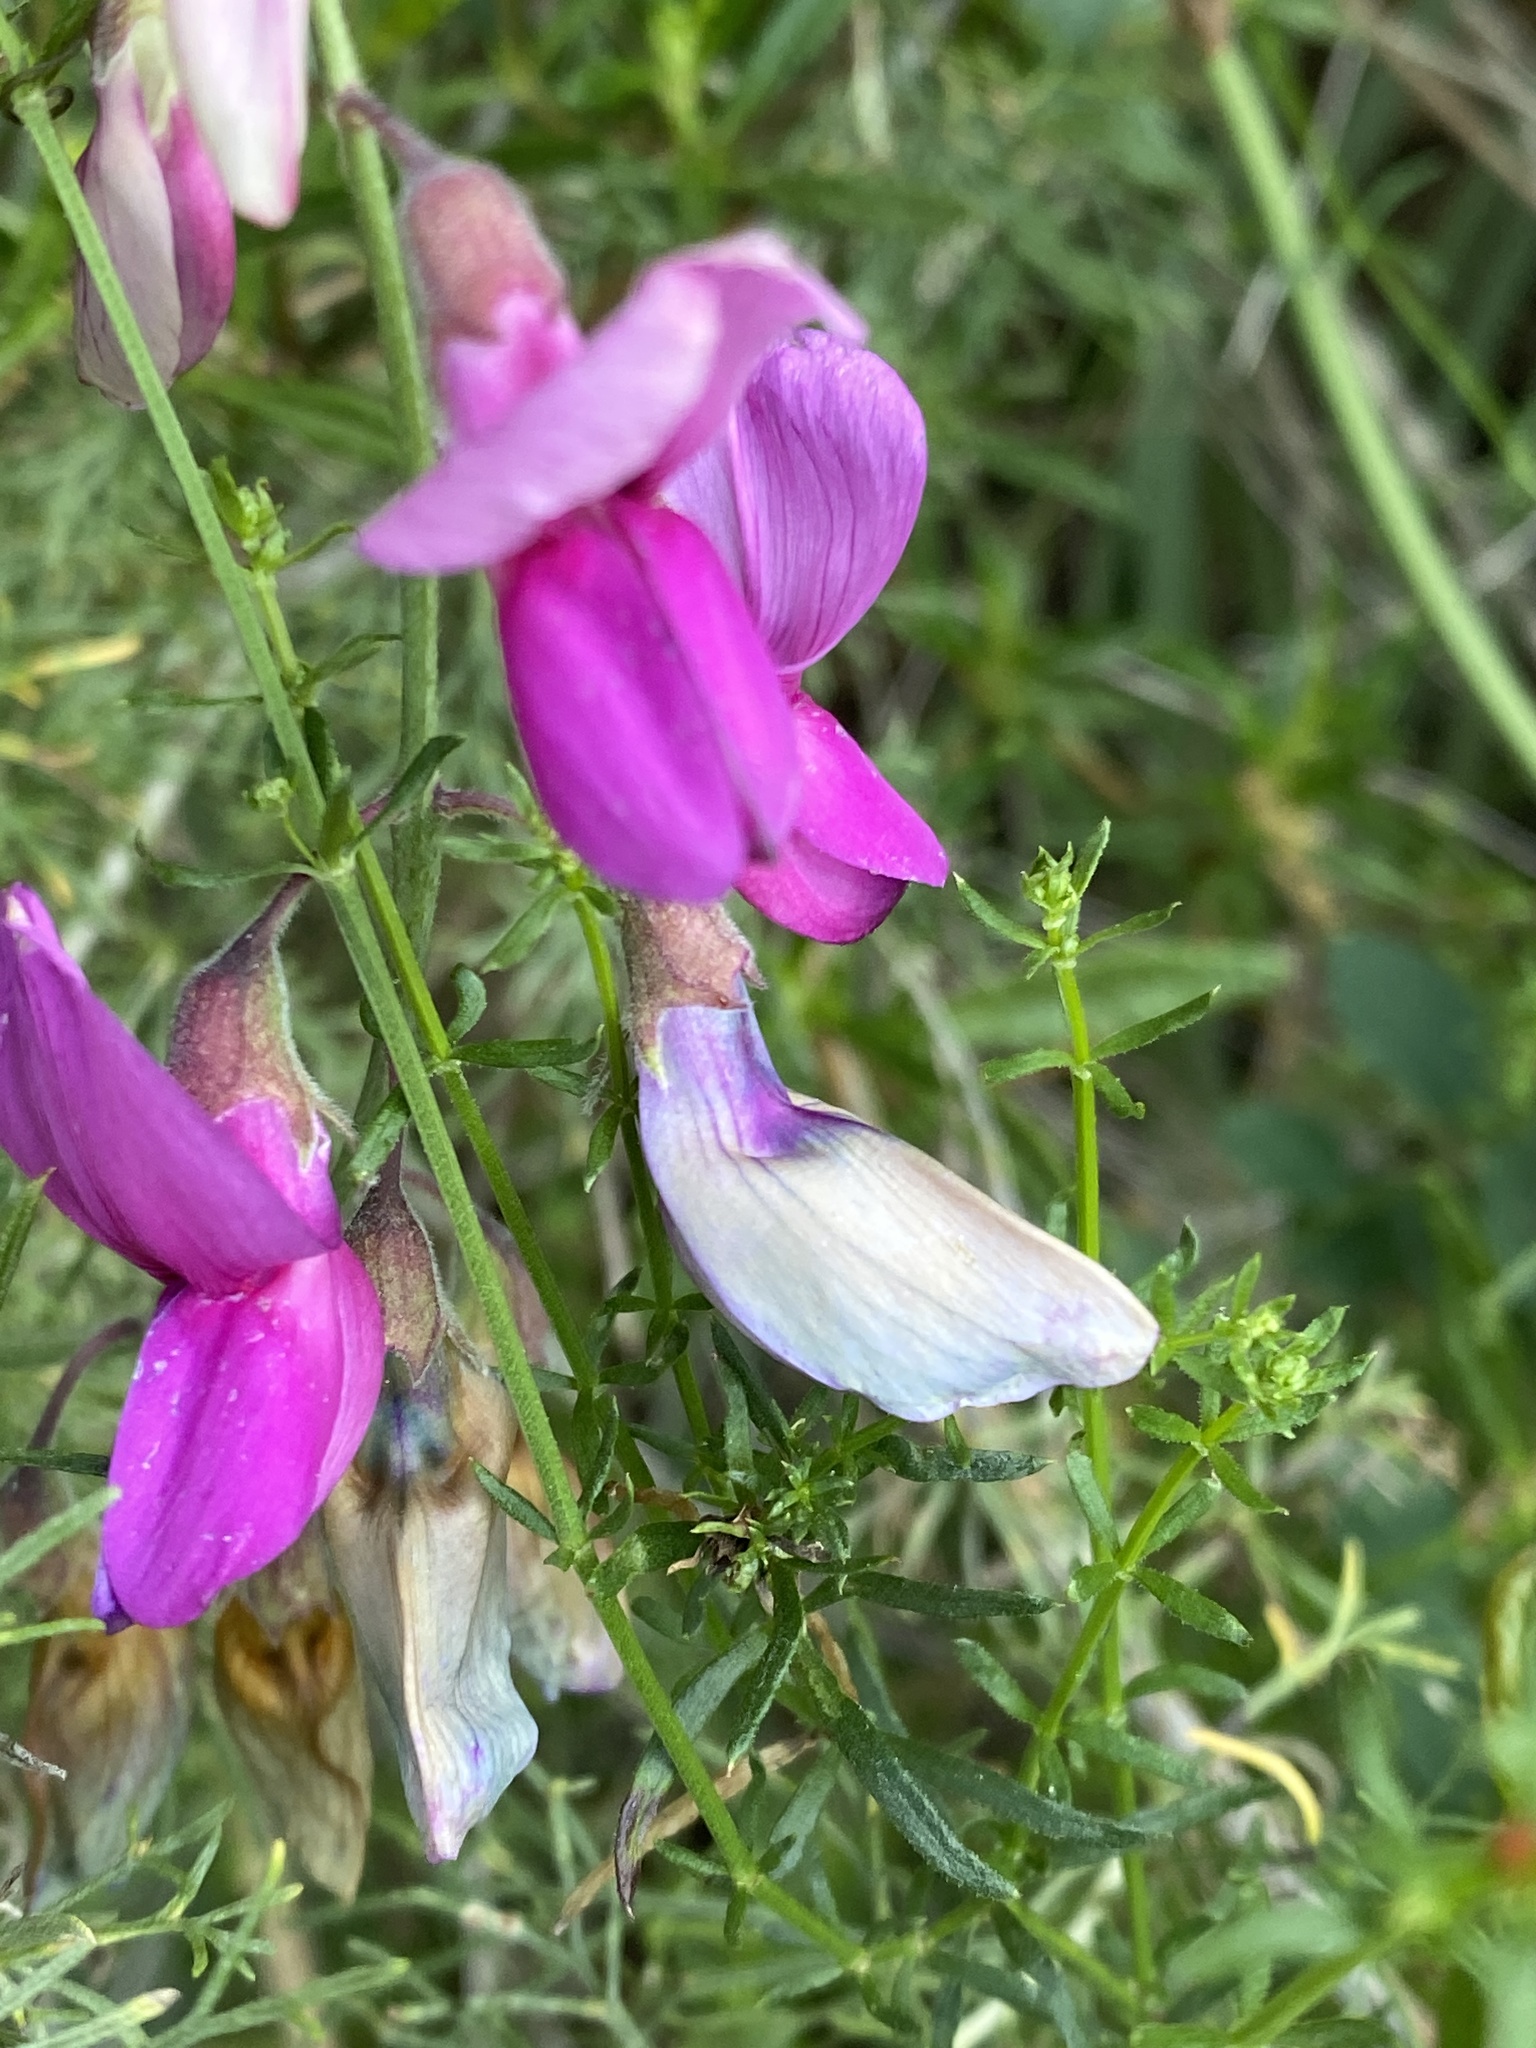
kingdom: Plantae
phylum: Tracheophyta
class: Magnoliopsida
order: Fabales
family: Fabaceae
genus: Lathyrus
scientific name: Lathyrus vestitus
